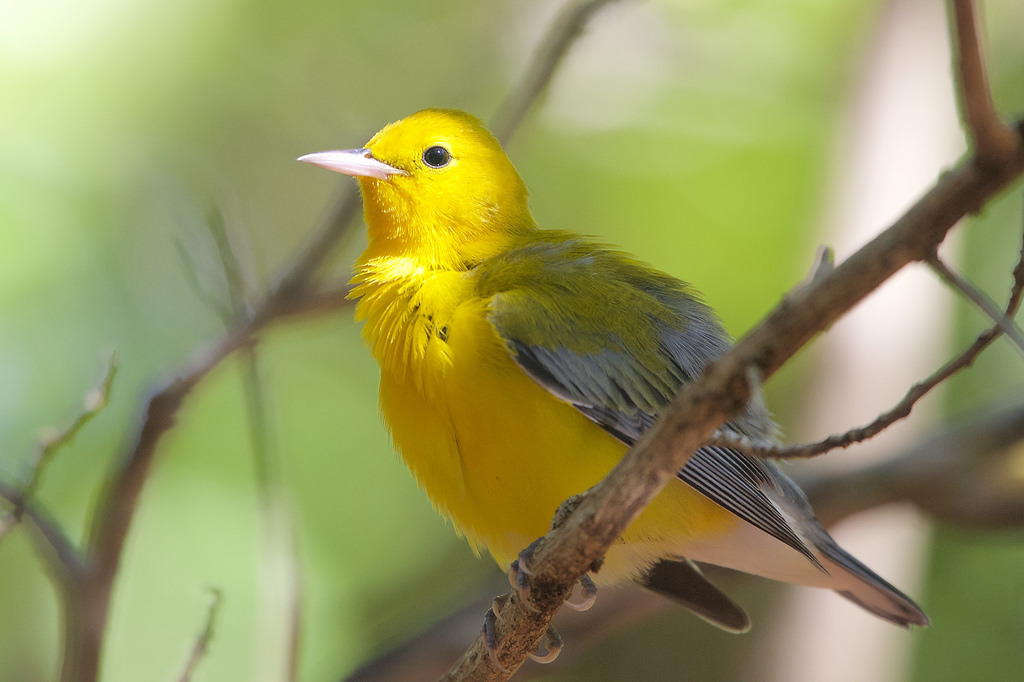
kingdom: Animalia
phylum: Chordata
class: Aves
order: Passeriformes
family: Parulidae
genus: Protonotaria
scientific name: Protonotaria citrea
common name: Prothonotary warbler
